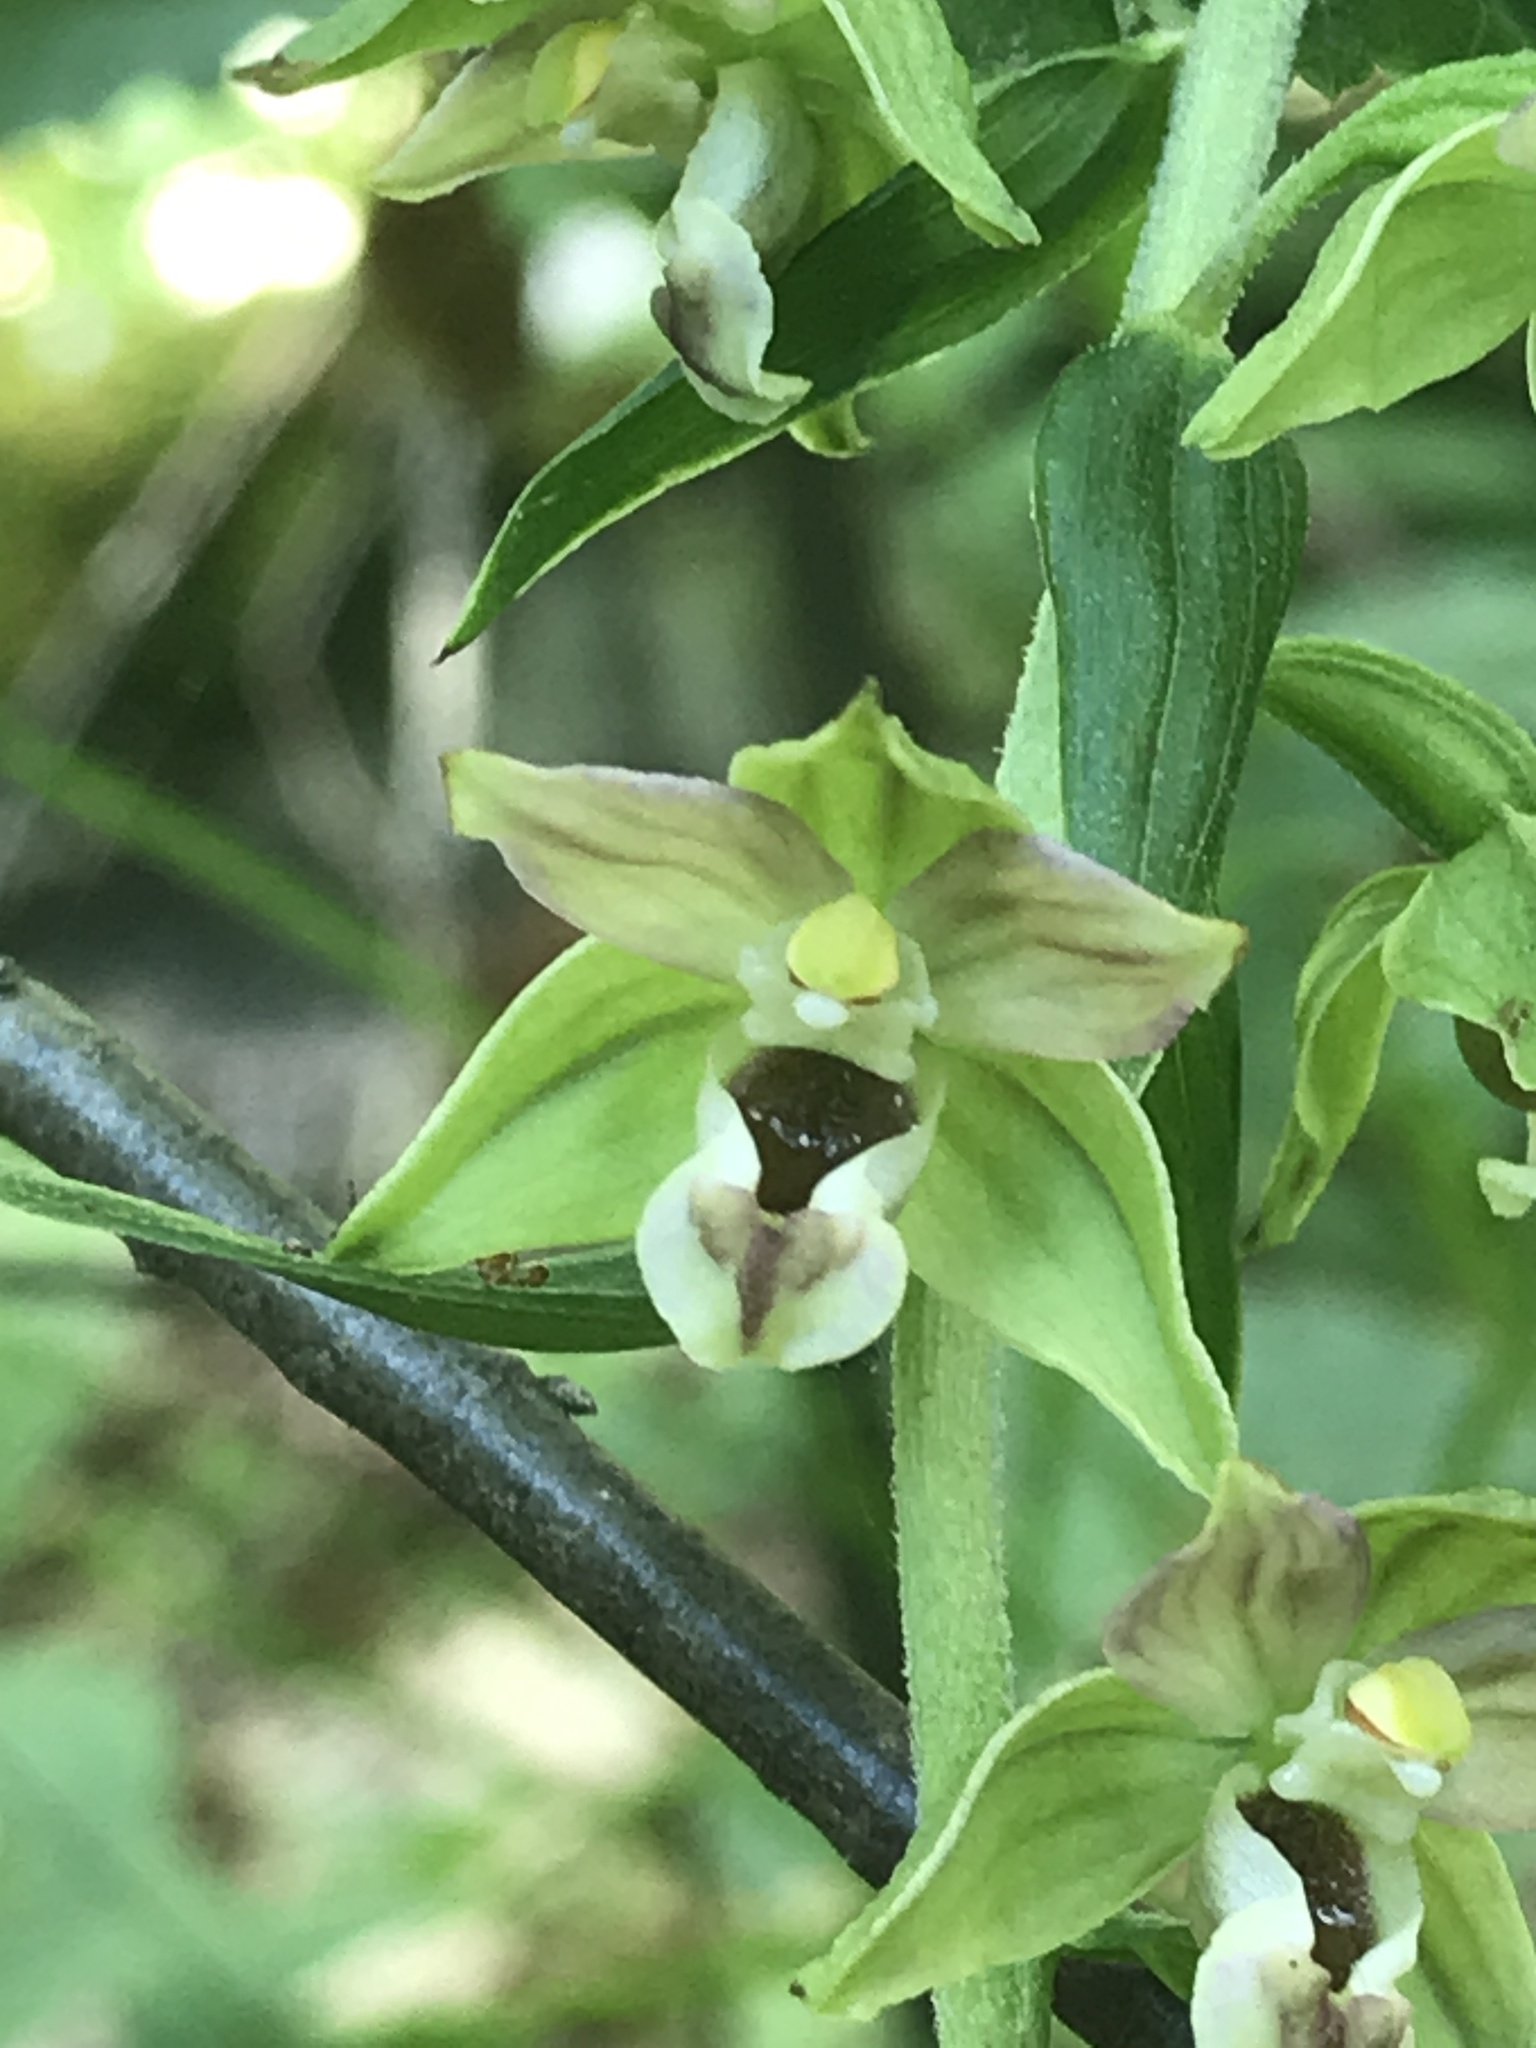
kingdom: Plantae
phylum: Tracheophyta
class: Liliopsida
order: Asparagales
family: Orchidaceae
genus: Epipactis
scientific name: Epipactis helleborine
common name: Broad-leaved helleborine
